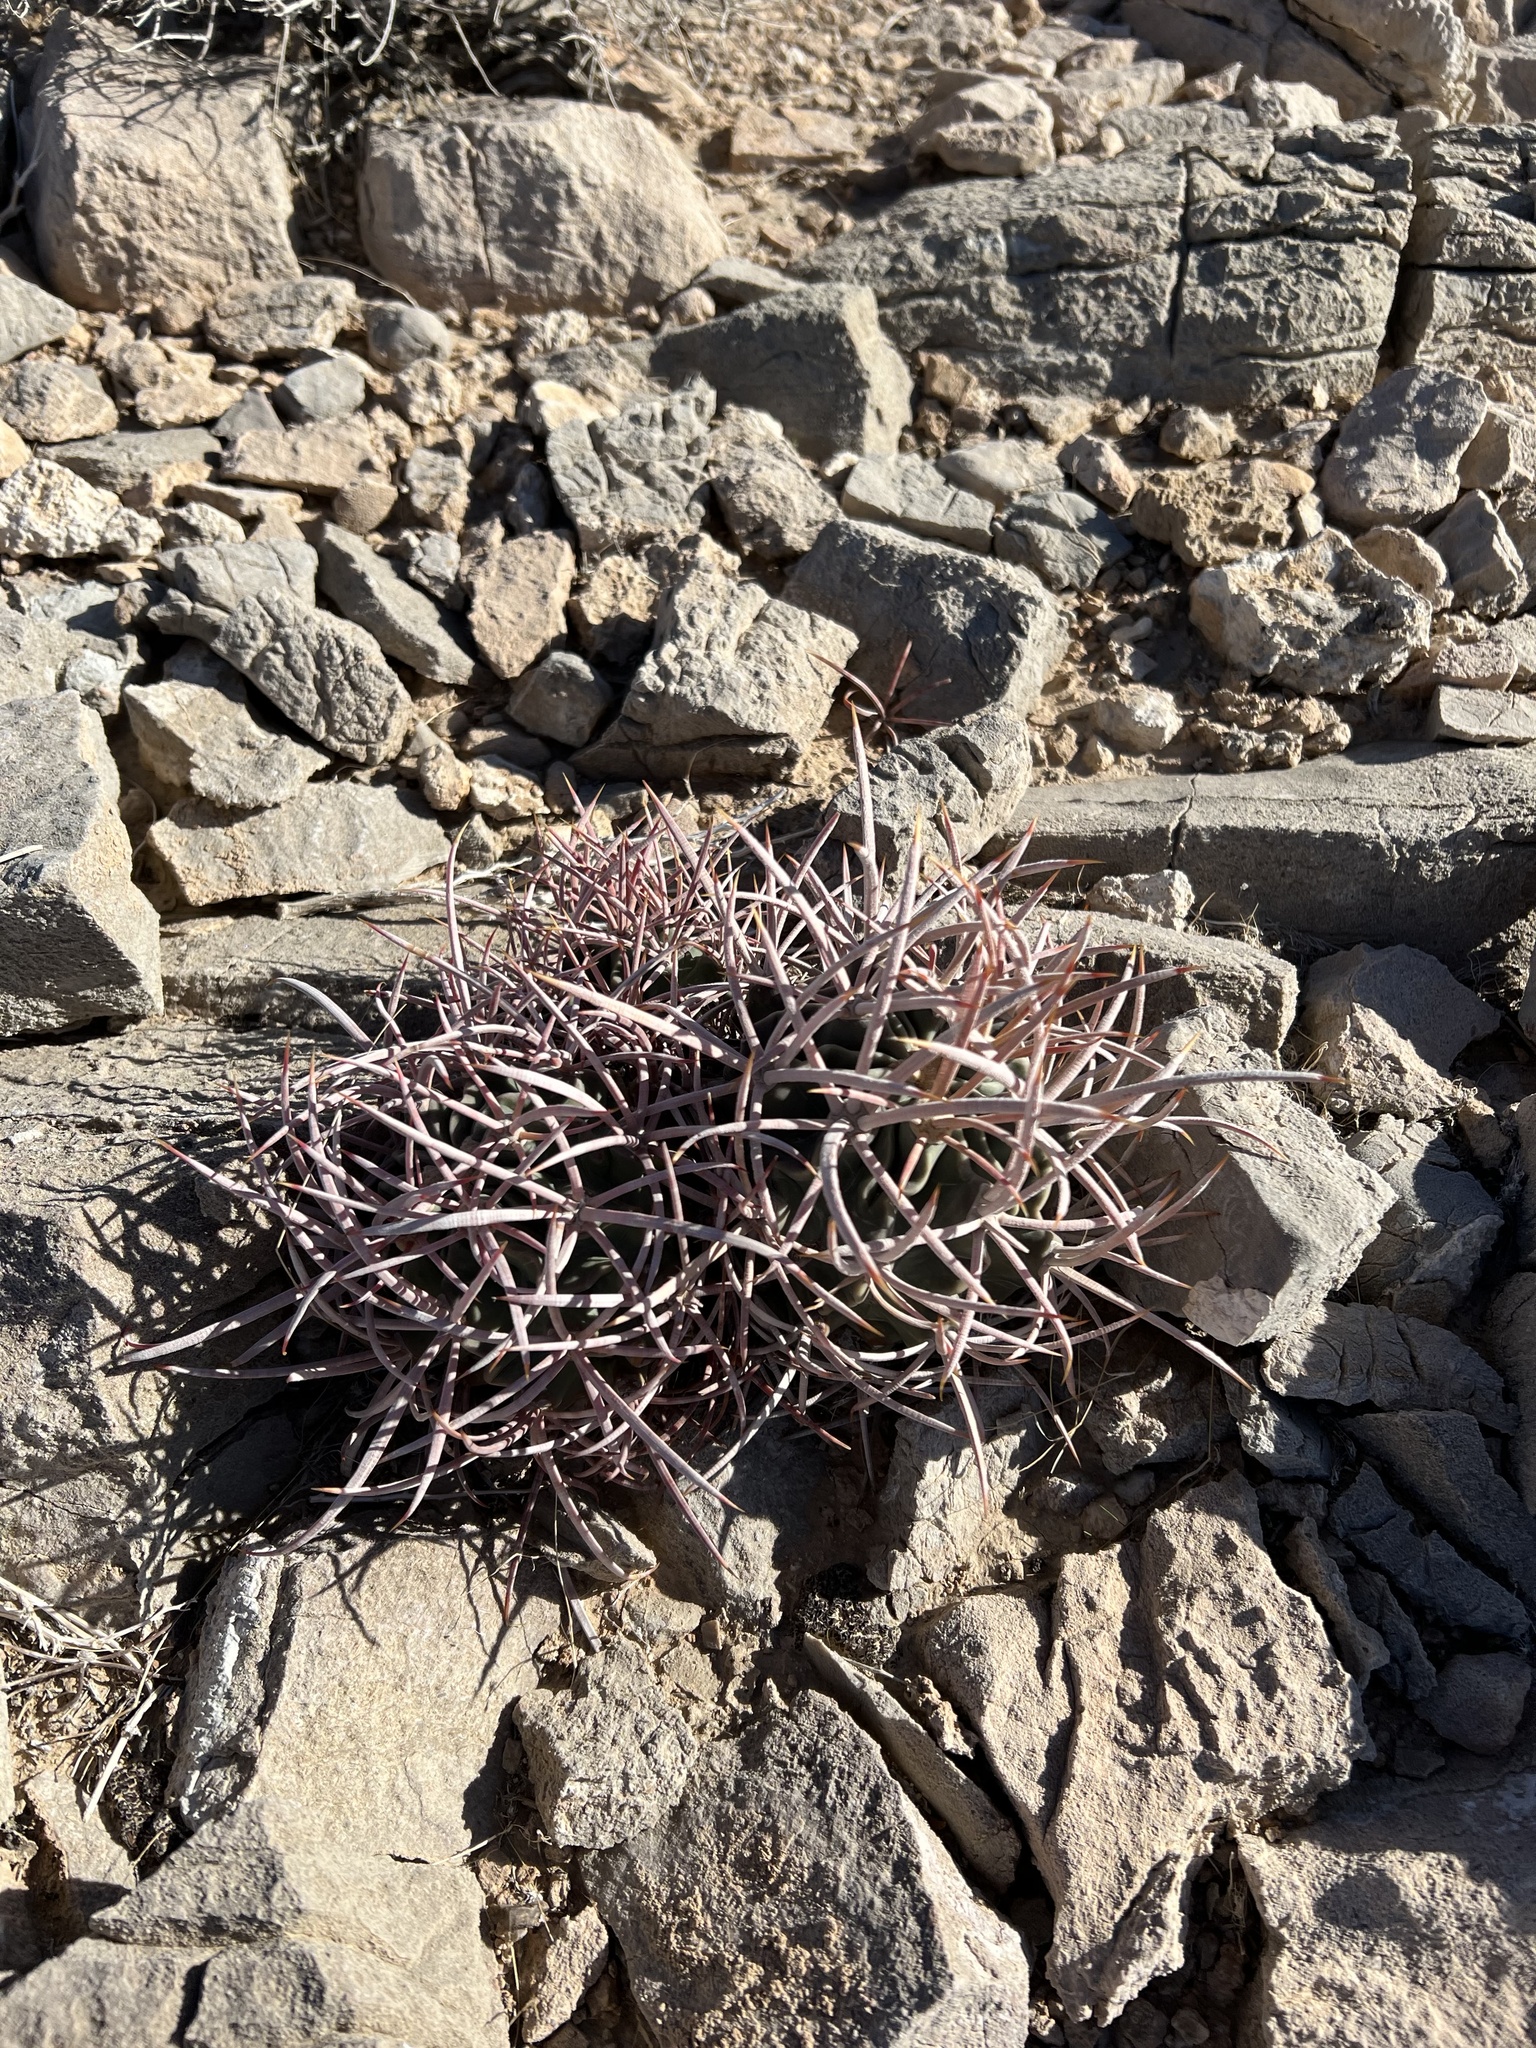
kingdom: Plantae
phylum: Tracheophyta
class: Magnoliopsida
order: Caryophyllales
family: Cactaceae
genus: Echinocactus
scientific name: Echinocactus polycephalus
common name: Cottontop cactus
